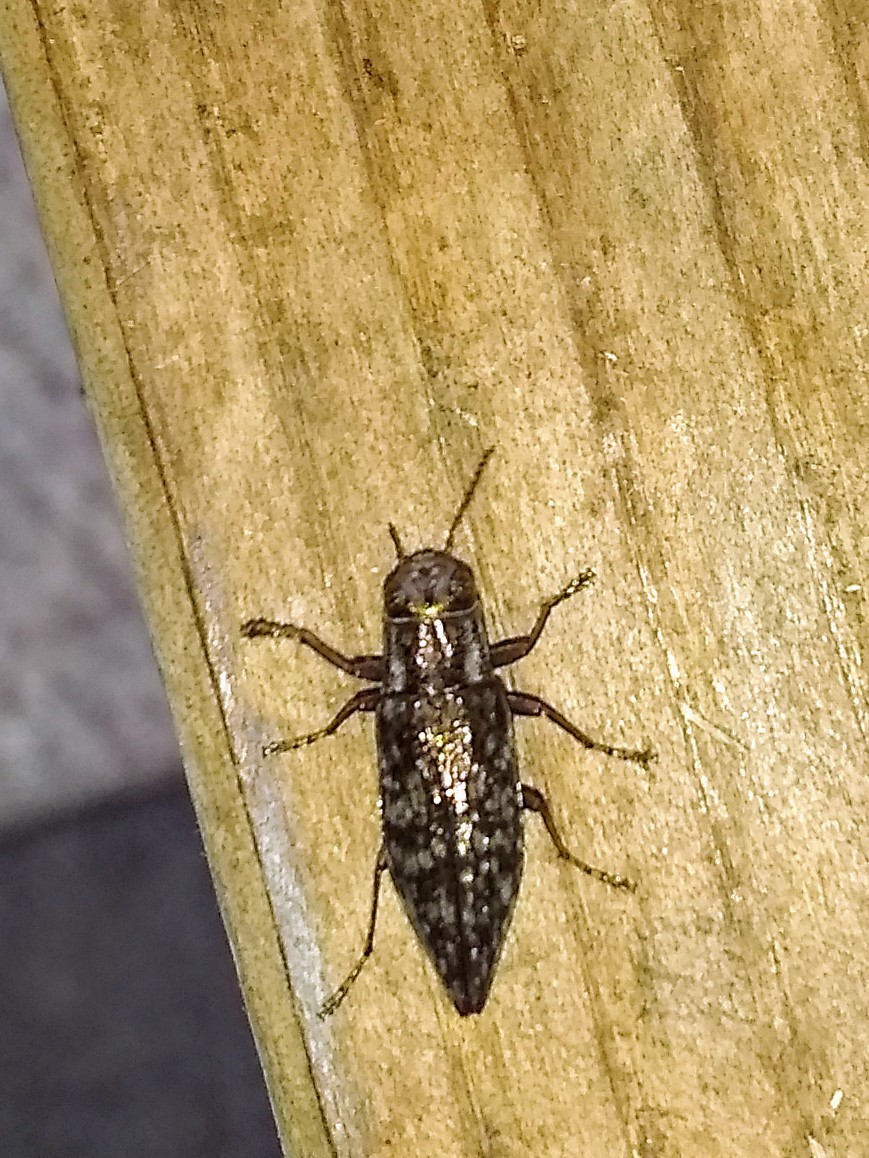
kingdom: Animalia
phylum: Arthropoda
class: Insecta
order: Coleoptera
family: Buprestidae
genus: Spectralia
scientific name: Spectralia gracilipes
